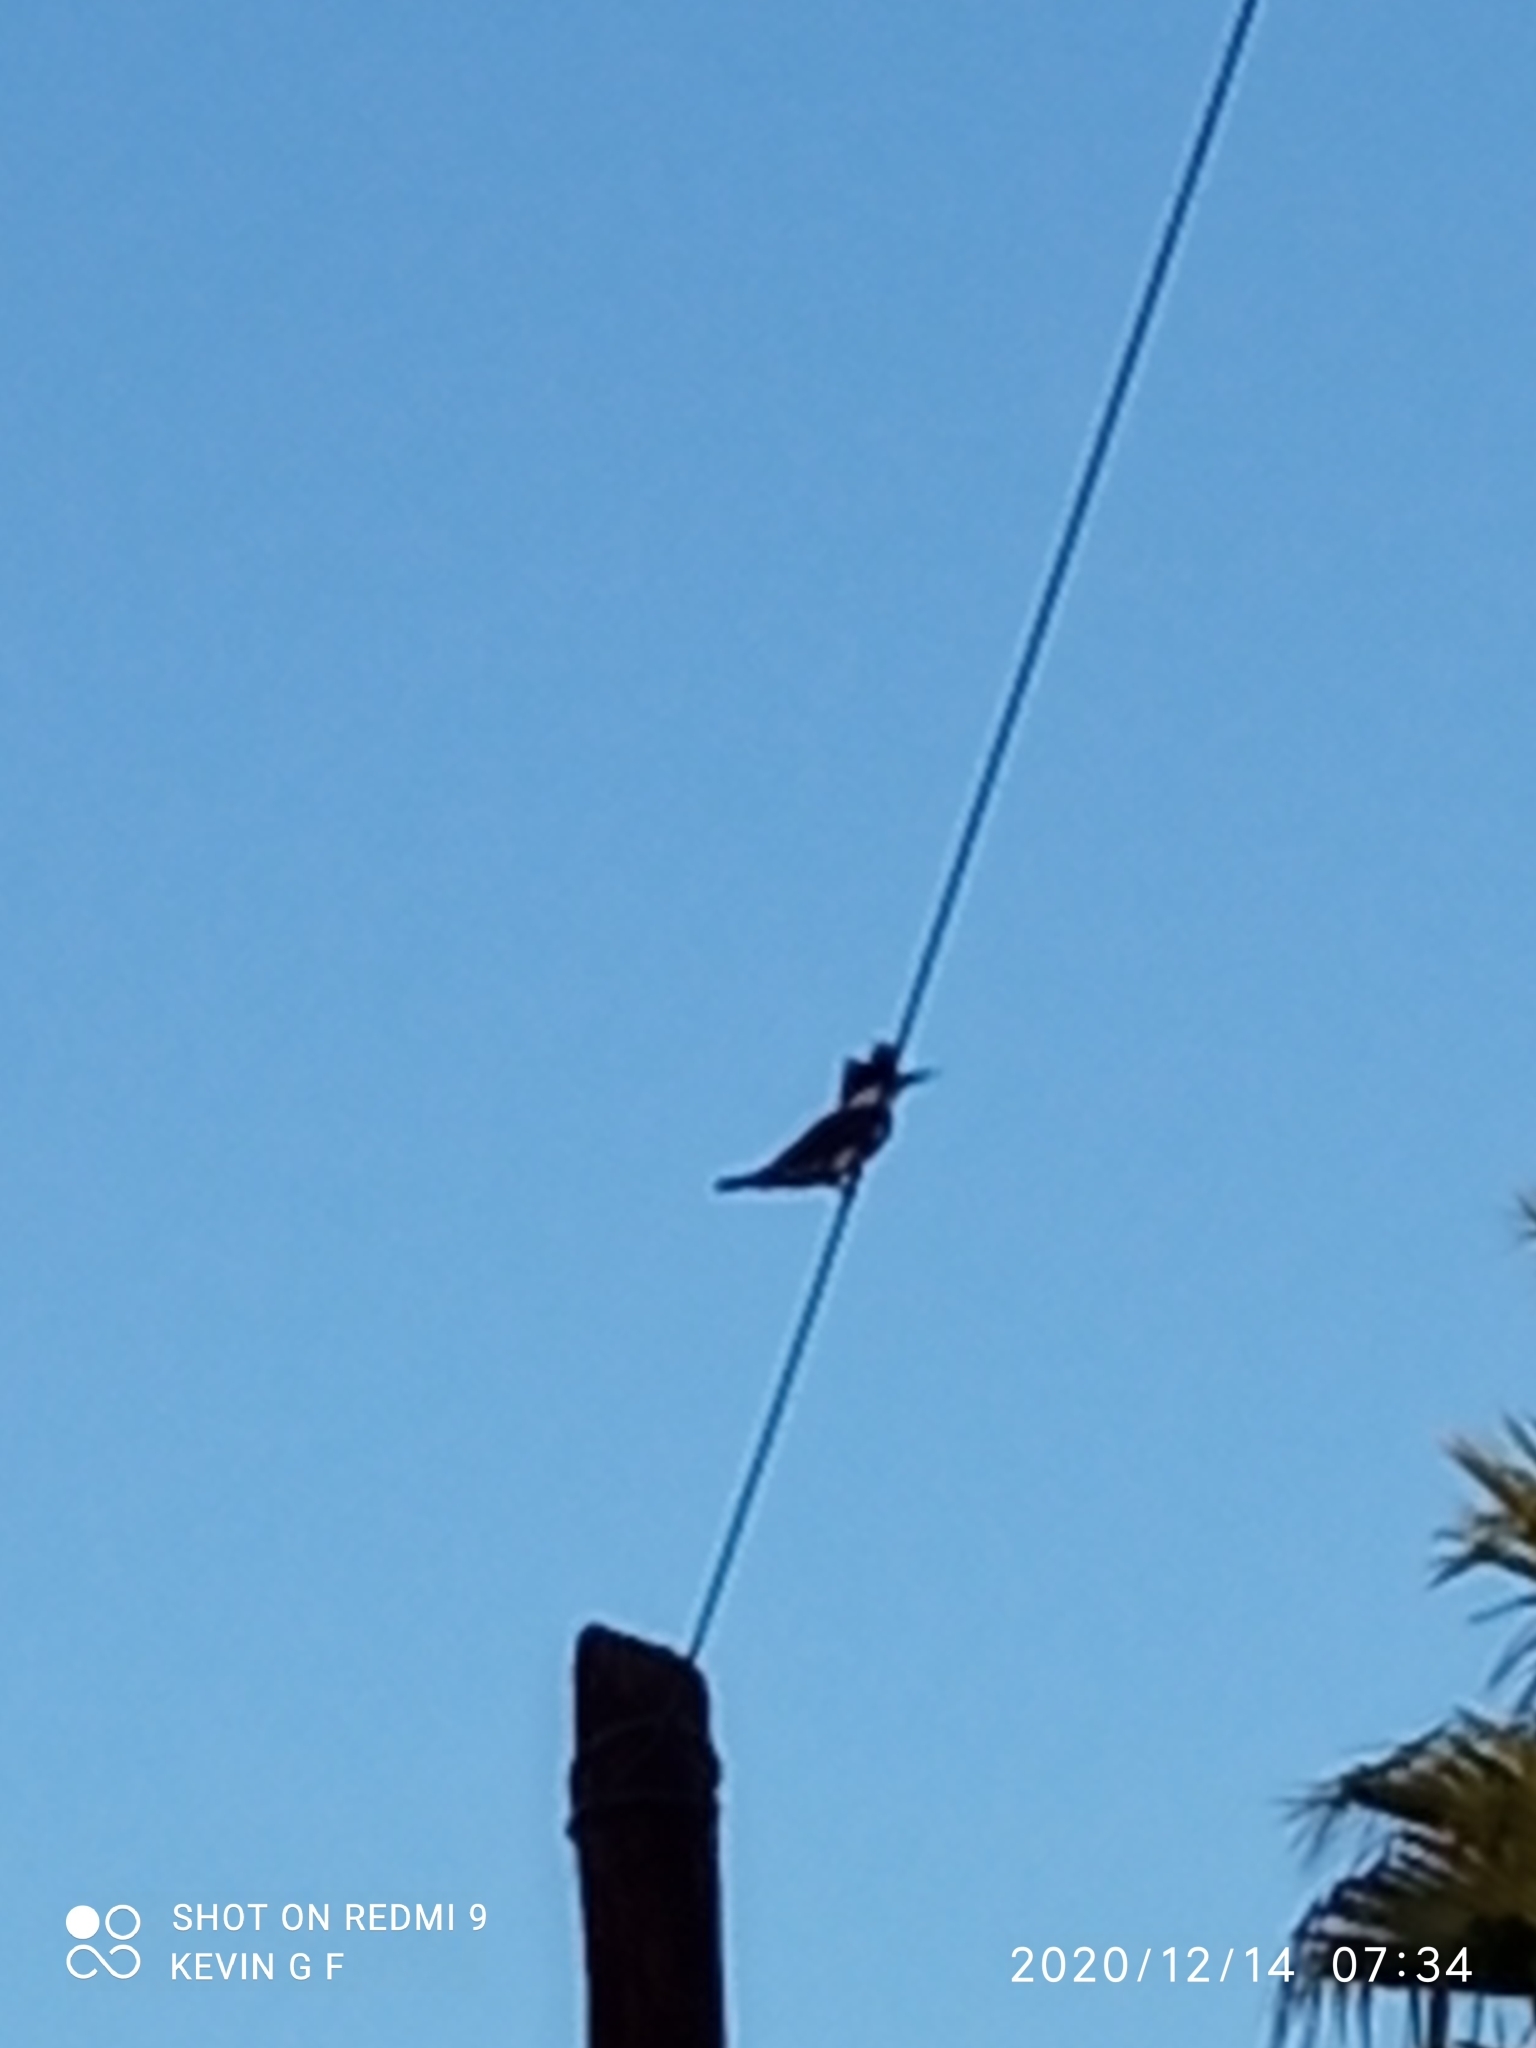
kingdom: Animalia
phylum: Chordata
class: Aves
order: Coraciiformes
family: Alcedinidae
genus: Megaceryle
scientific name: Megaceryle alcyon
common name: Belted kingfisher
